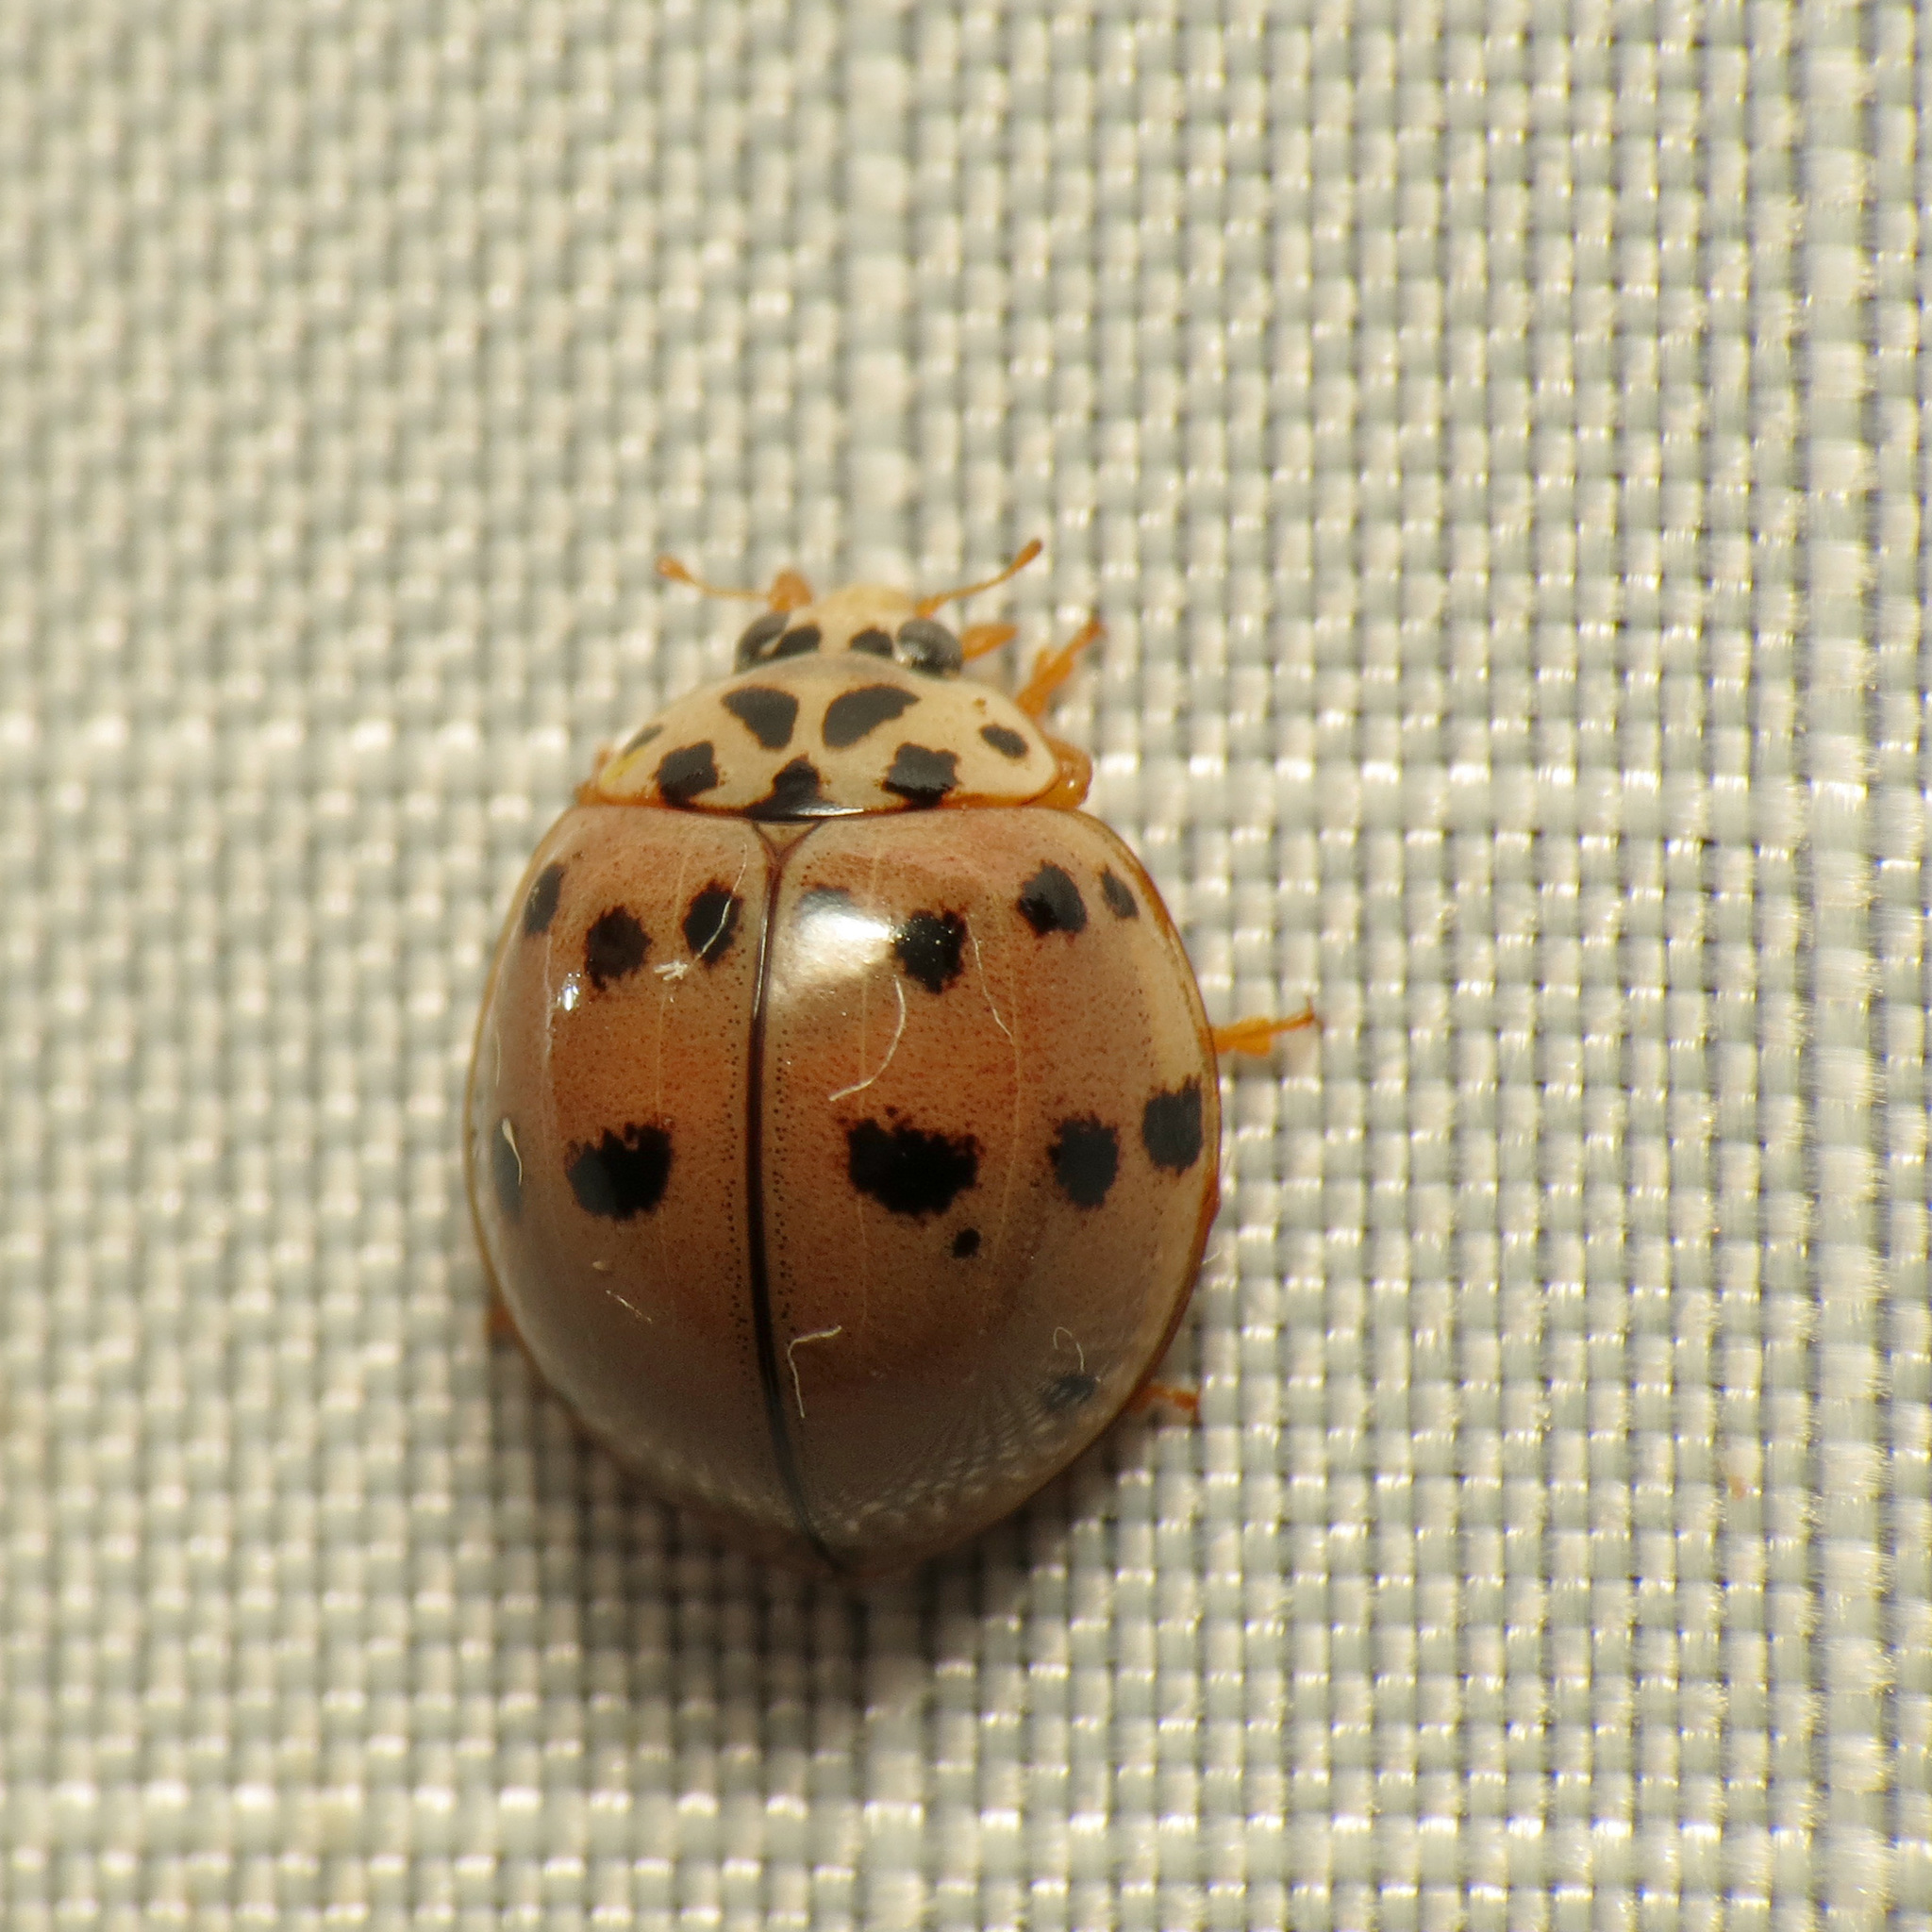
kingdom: Animalia
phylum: Arthropoda
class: Insecta
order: Coleoptera
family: Coccinellidae
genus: Olla
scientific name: Olla v-nigrum
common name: Ashy gray lady beetle
